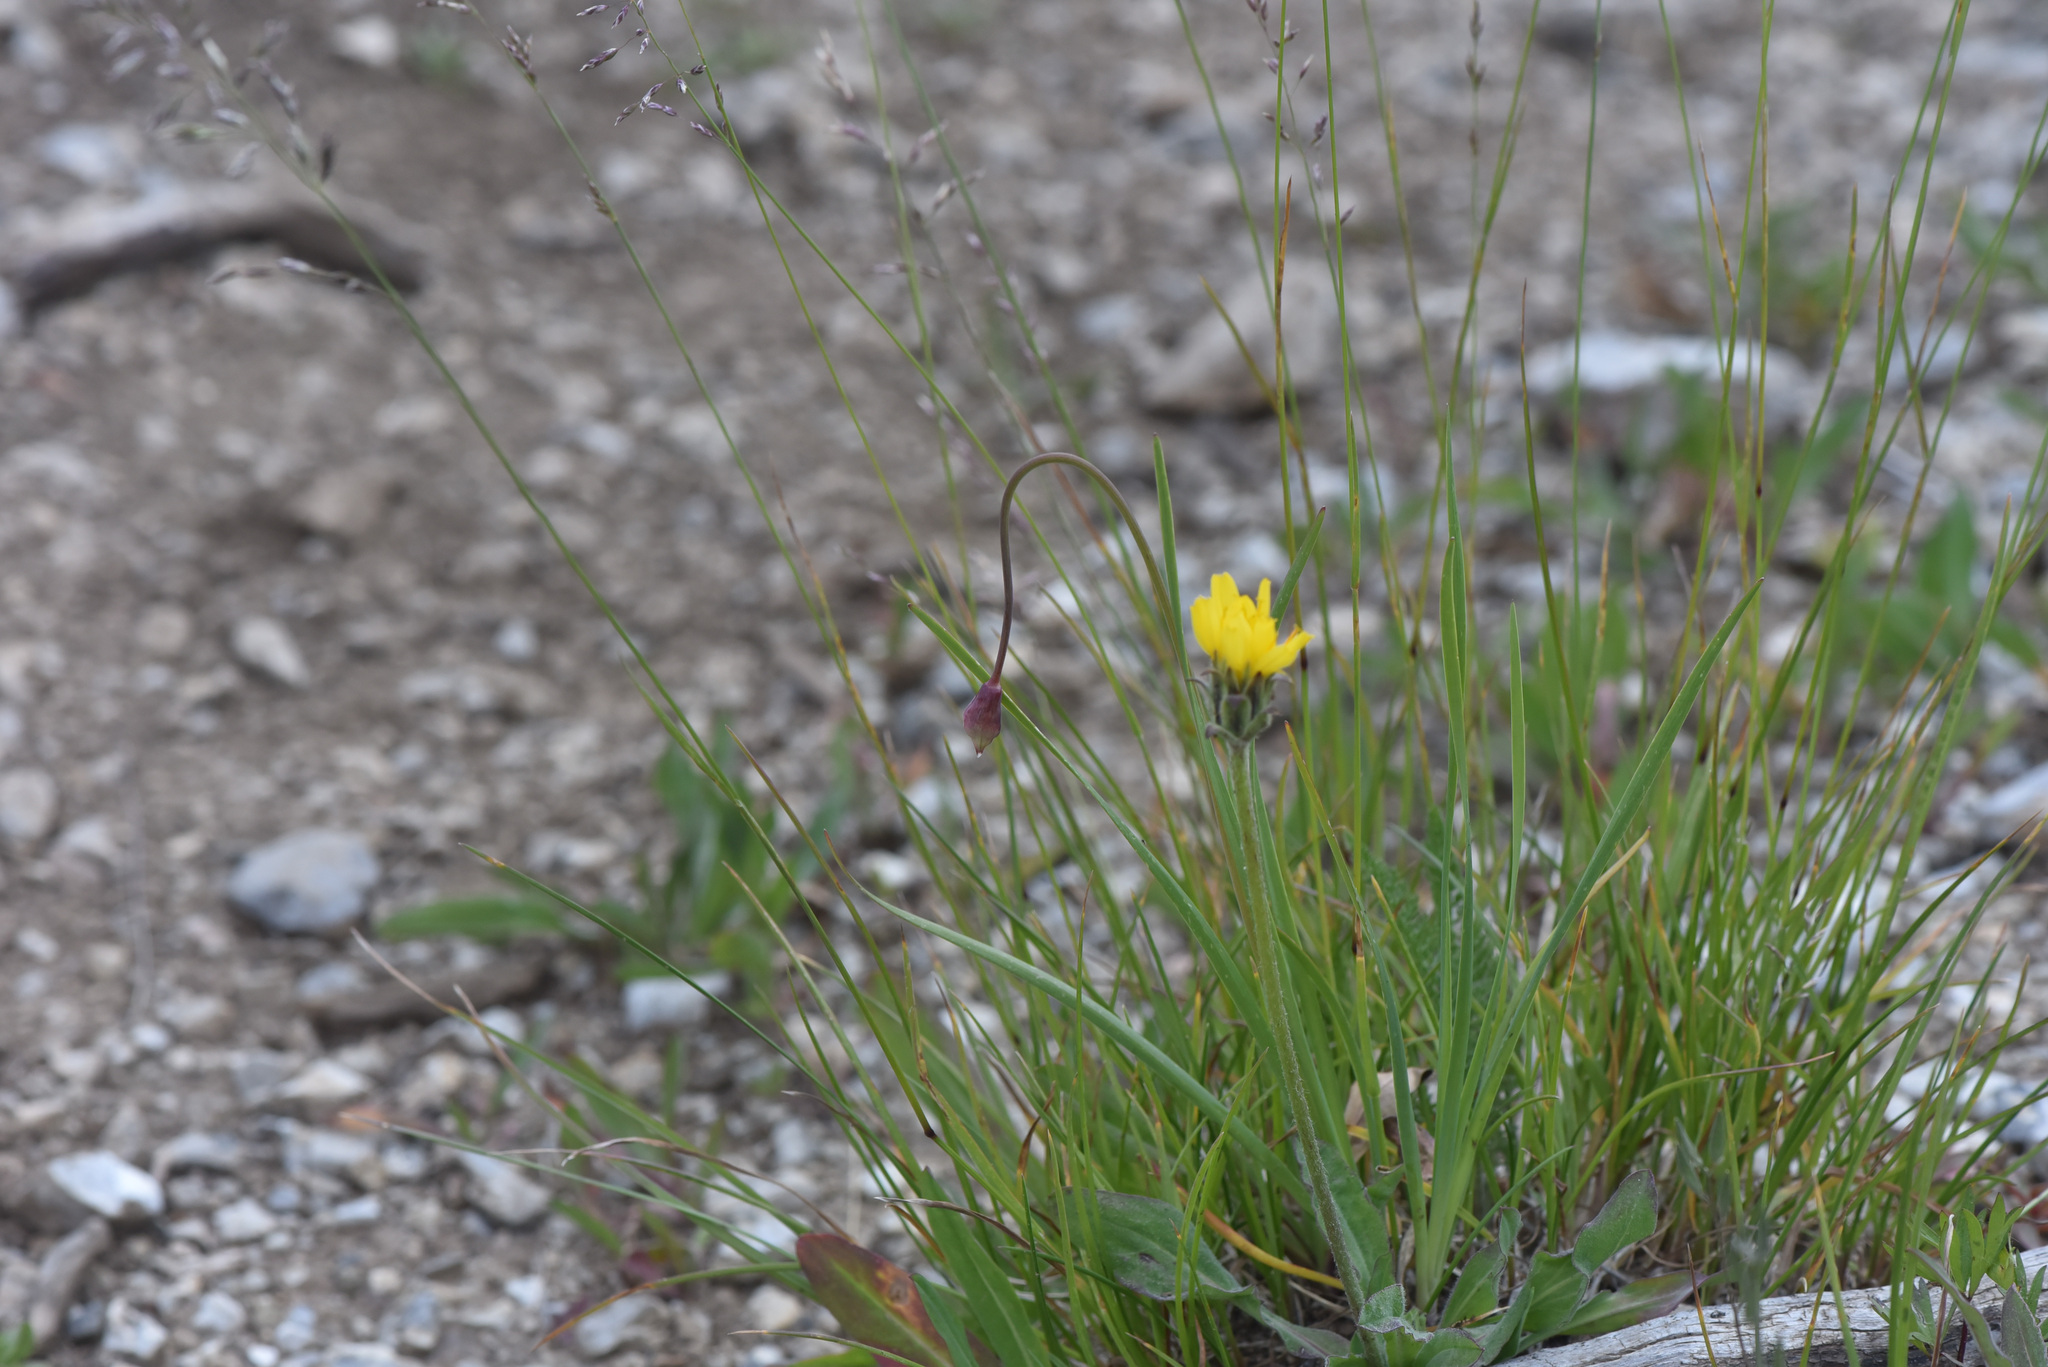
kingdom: Plantae
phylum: Tracheophyta
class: Liliopsida
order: Asparagales
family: Amaryllidaceae
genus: Allium
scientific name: Allium cernuum
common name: Nodding onion
